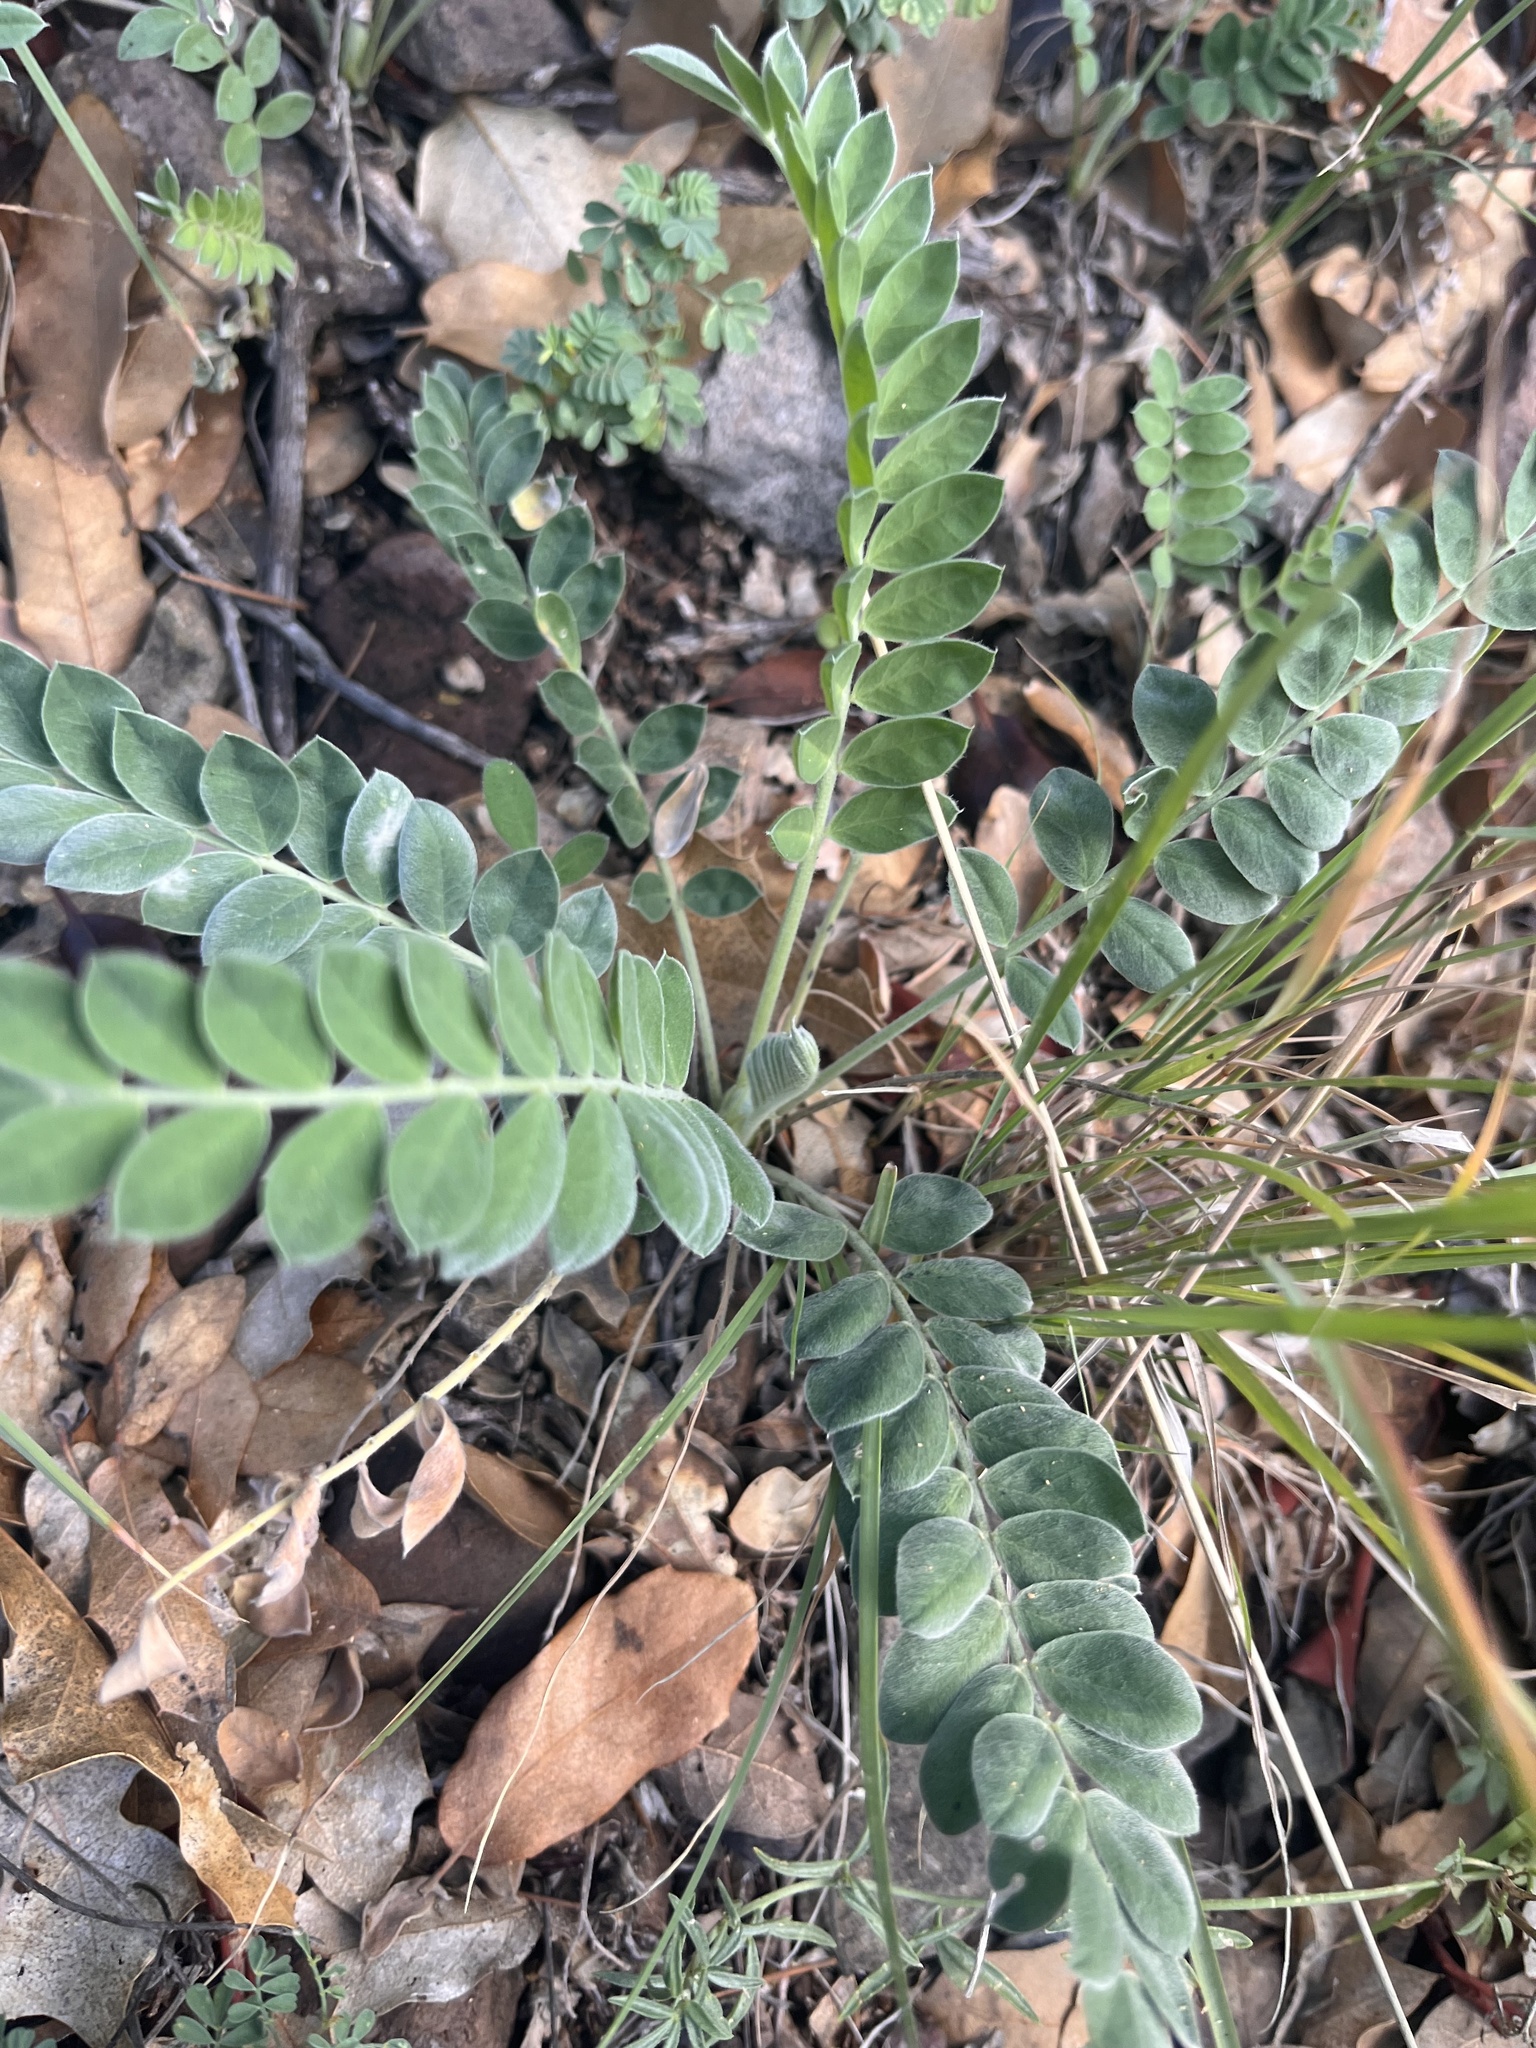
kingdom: Plantae
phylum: Tracheophyta
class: Magnoliopsida
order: Fabales
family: Fabaceae
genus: Astragalus
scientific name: Astragalus mollissimus
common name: Woolly locoweed
